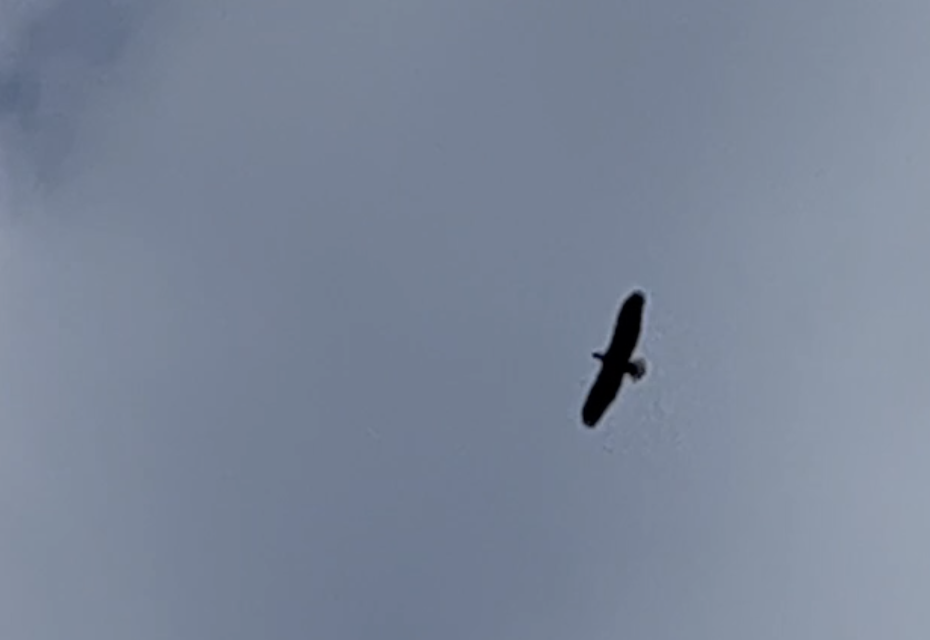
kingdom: Animalia
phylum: Chordata
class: Aves
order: Accipitriformes
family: Accipitridae
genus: Haliaeetus
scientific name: Haliaeetus leucocephalus
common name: Bald eagle
